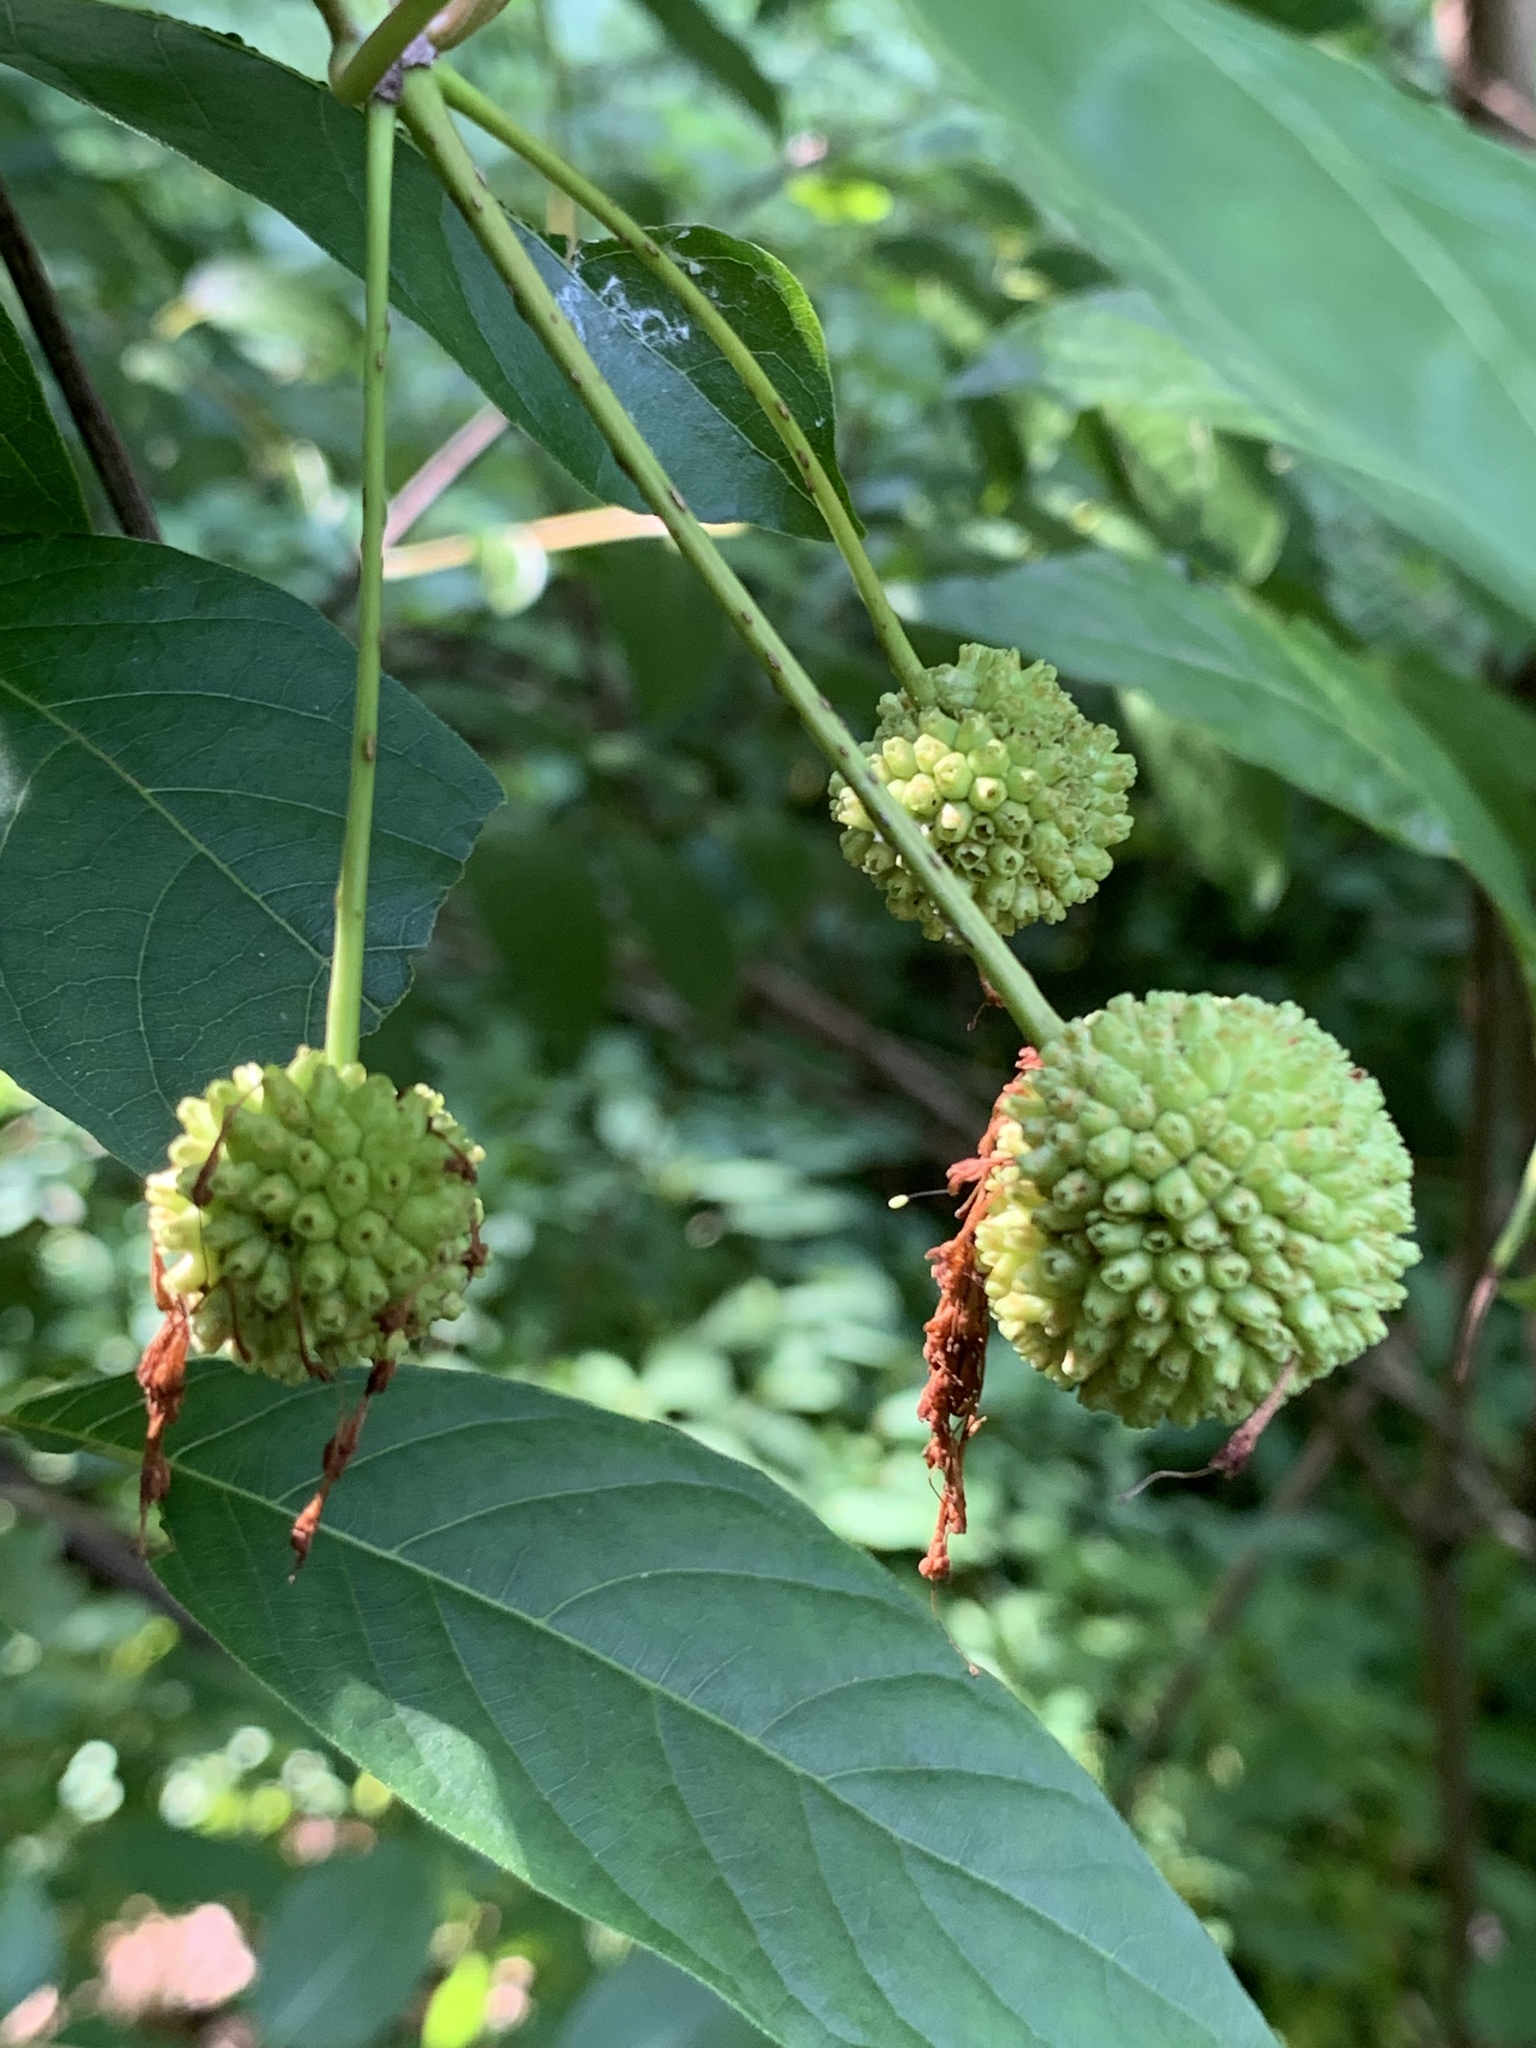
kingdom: Plantae
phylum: Tracheophyta
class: Magnoliopsida
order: Gentianales
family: Rubiaceae
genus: Cephalanthus
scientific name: Cephalanthus occidentalis
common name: Button-willow
